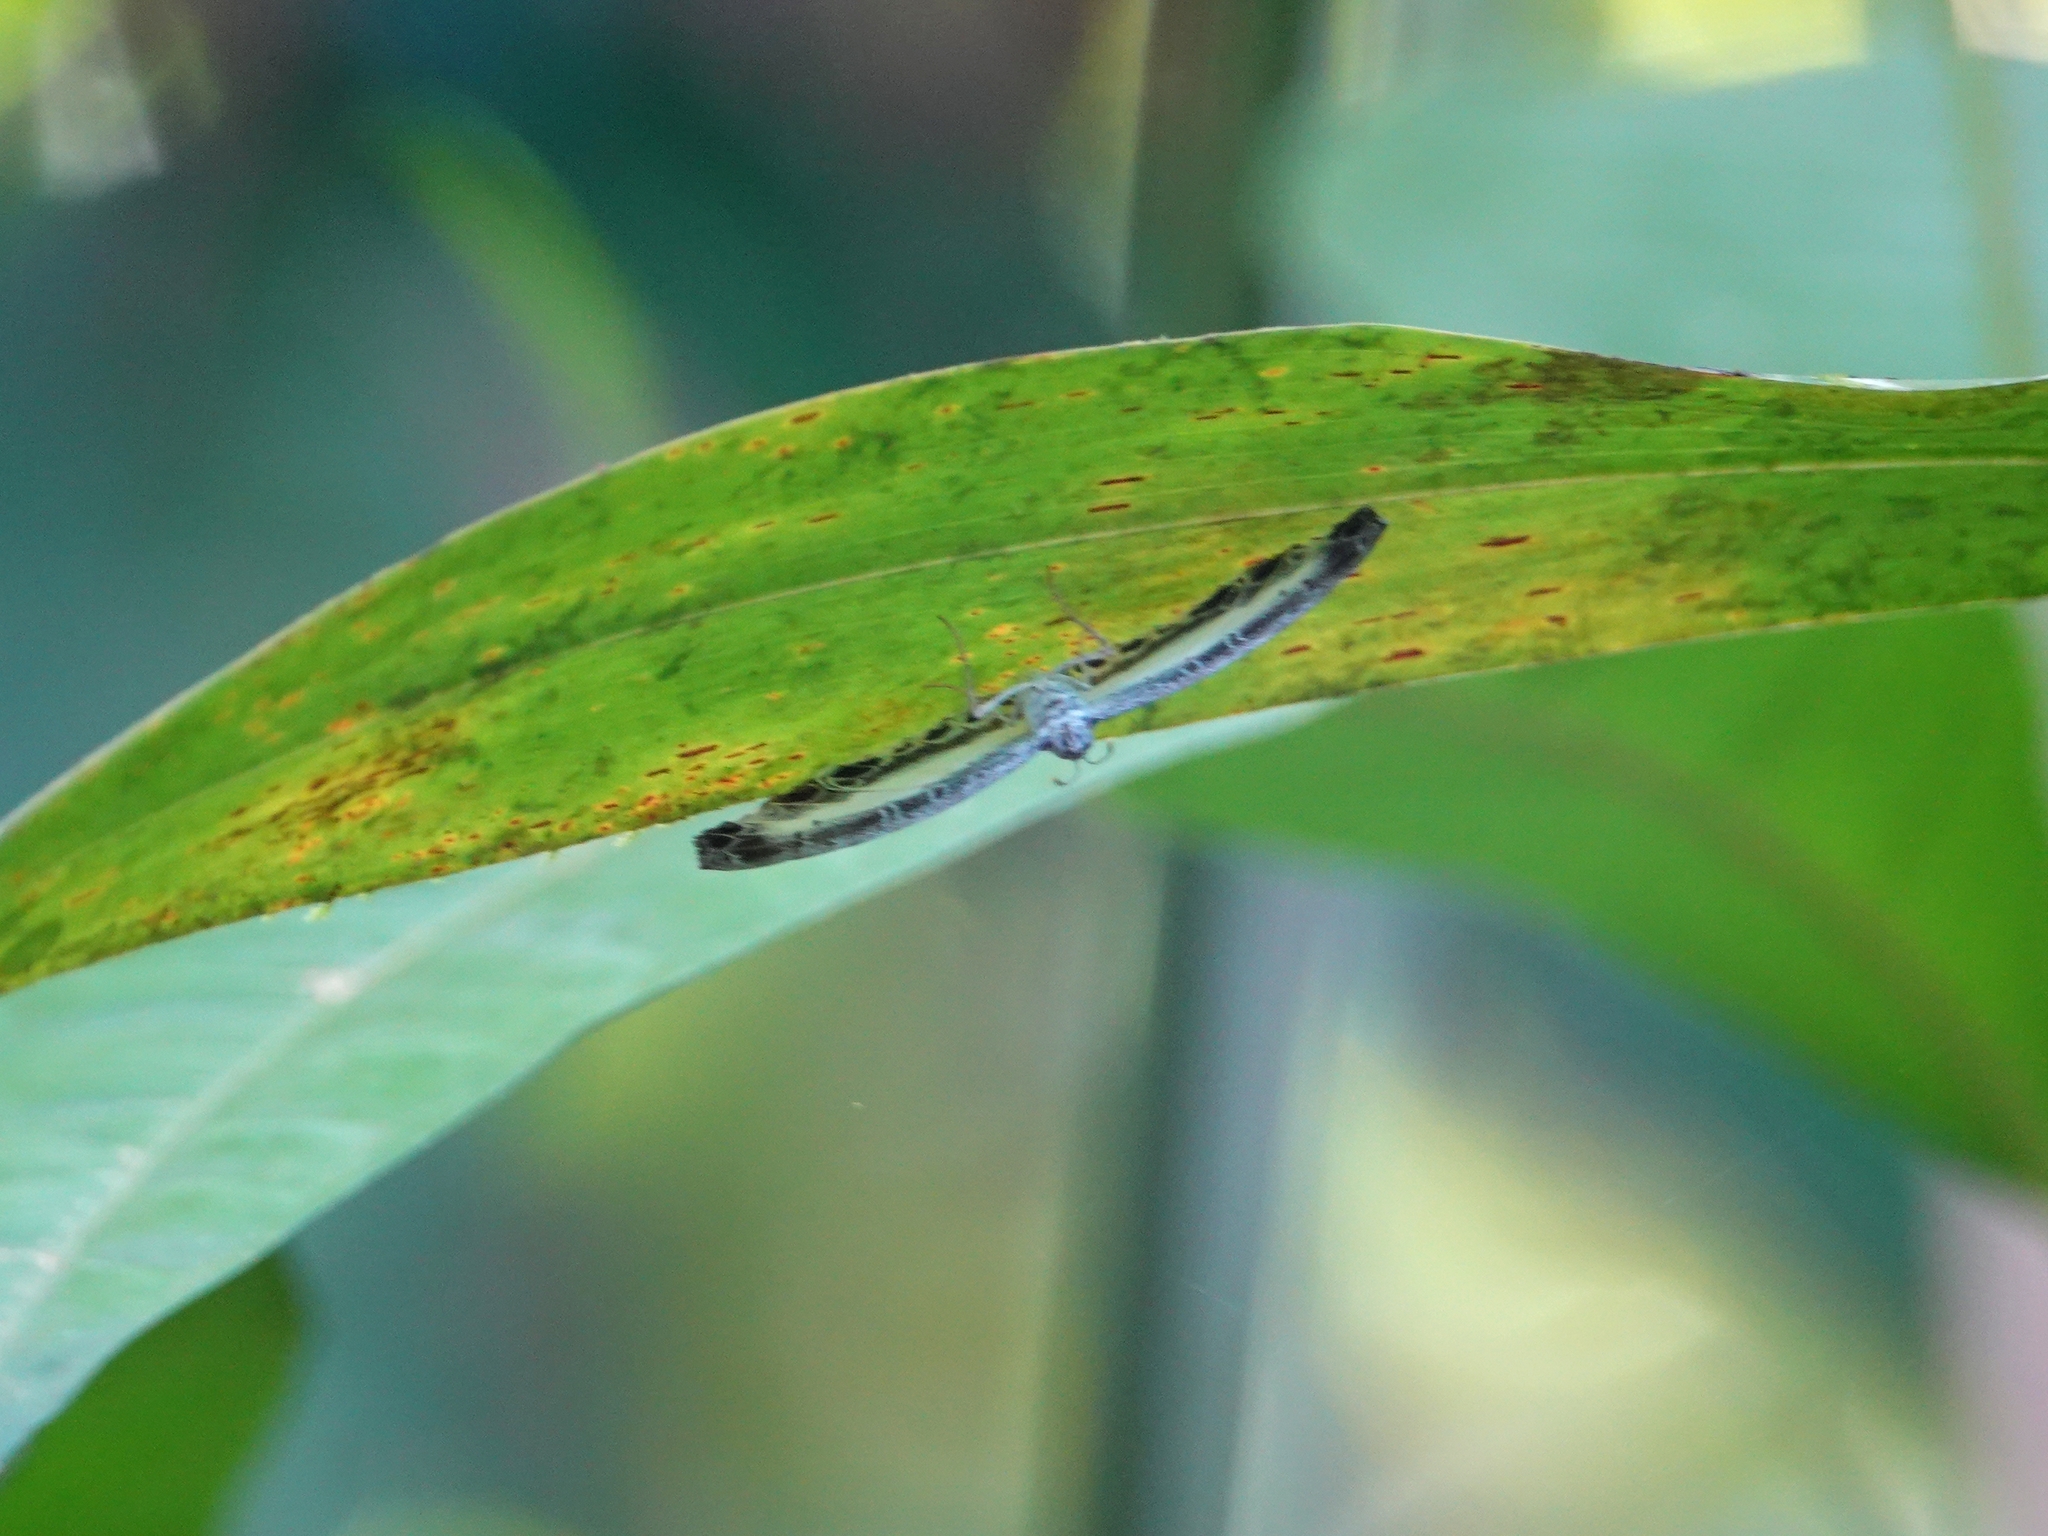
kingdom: Animalia
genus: Nymphidium
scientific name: Nymphidium mantus
